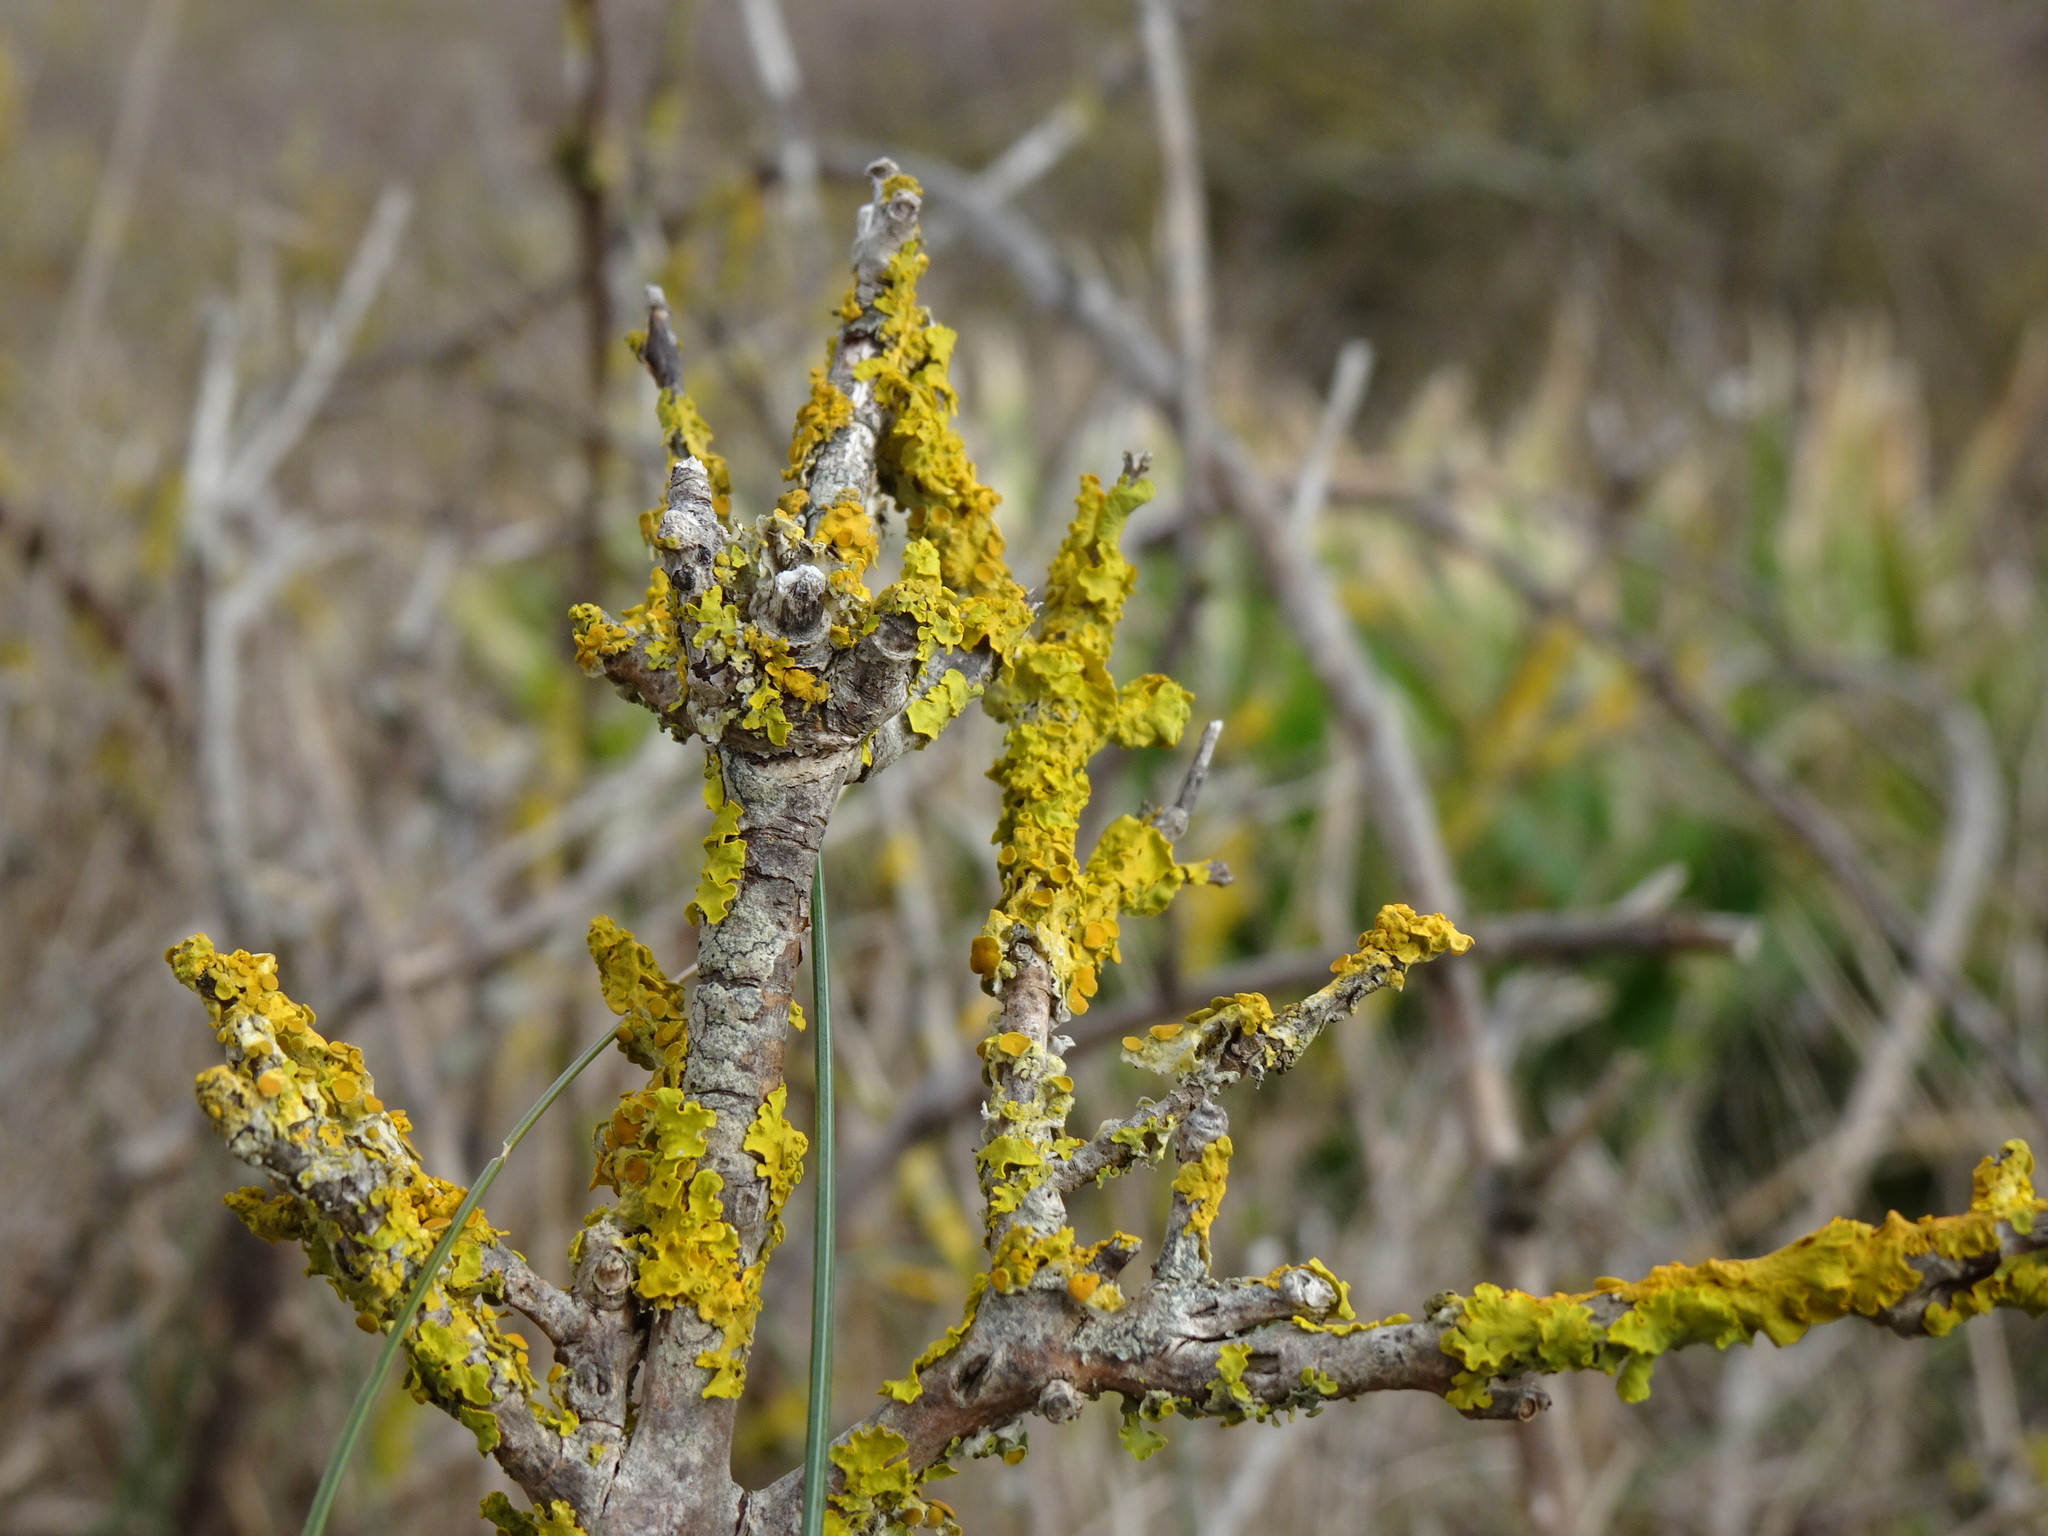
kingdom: Fungi
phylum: Ascomycota
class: Lecanoromycetes
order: Teloschistales
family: Teloschistaceae
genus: Xanthoria
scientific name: Xanthoria parietina
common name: Common orange lichen
